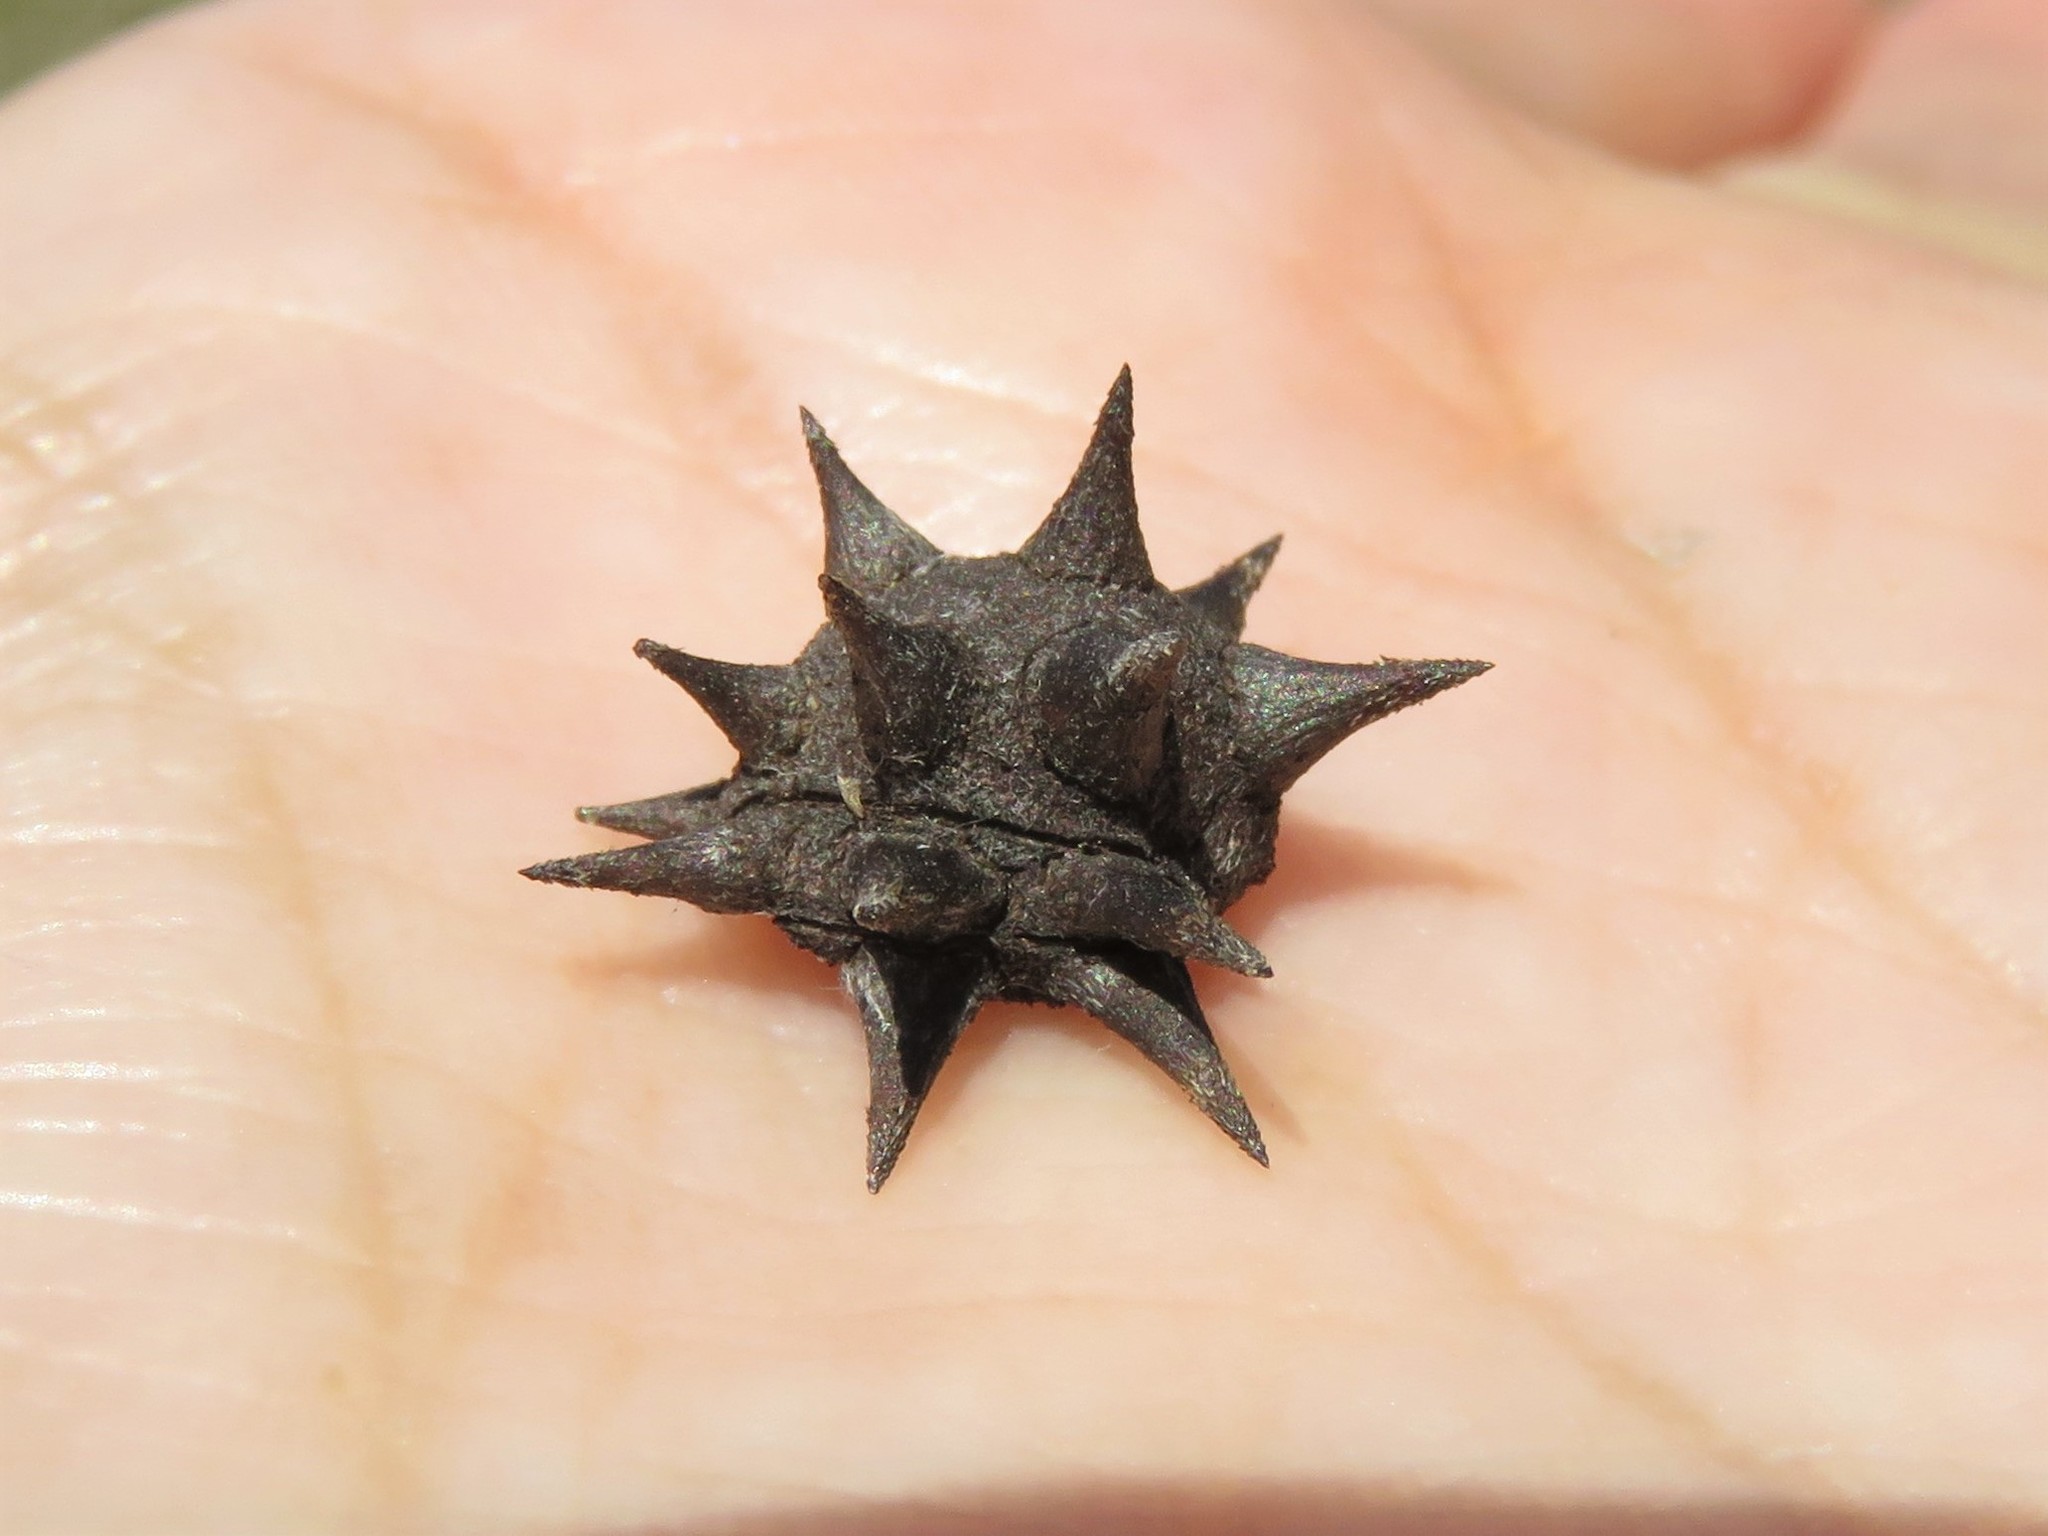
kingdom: Plantae
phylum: Tracheophyta
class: Magnoliopsida
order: Zygophyllales
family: Krameriaceae
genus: Krameria
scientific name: Krameria lanceolata
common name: Ratany
